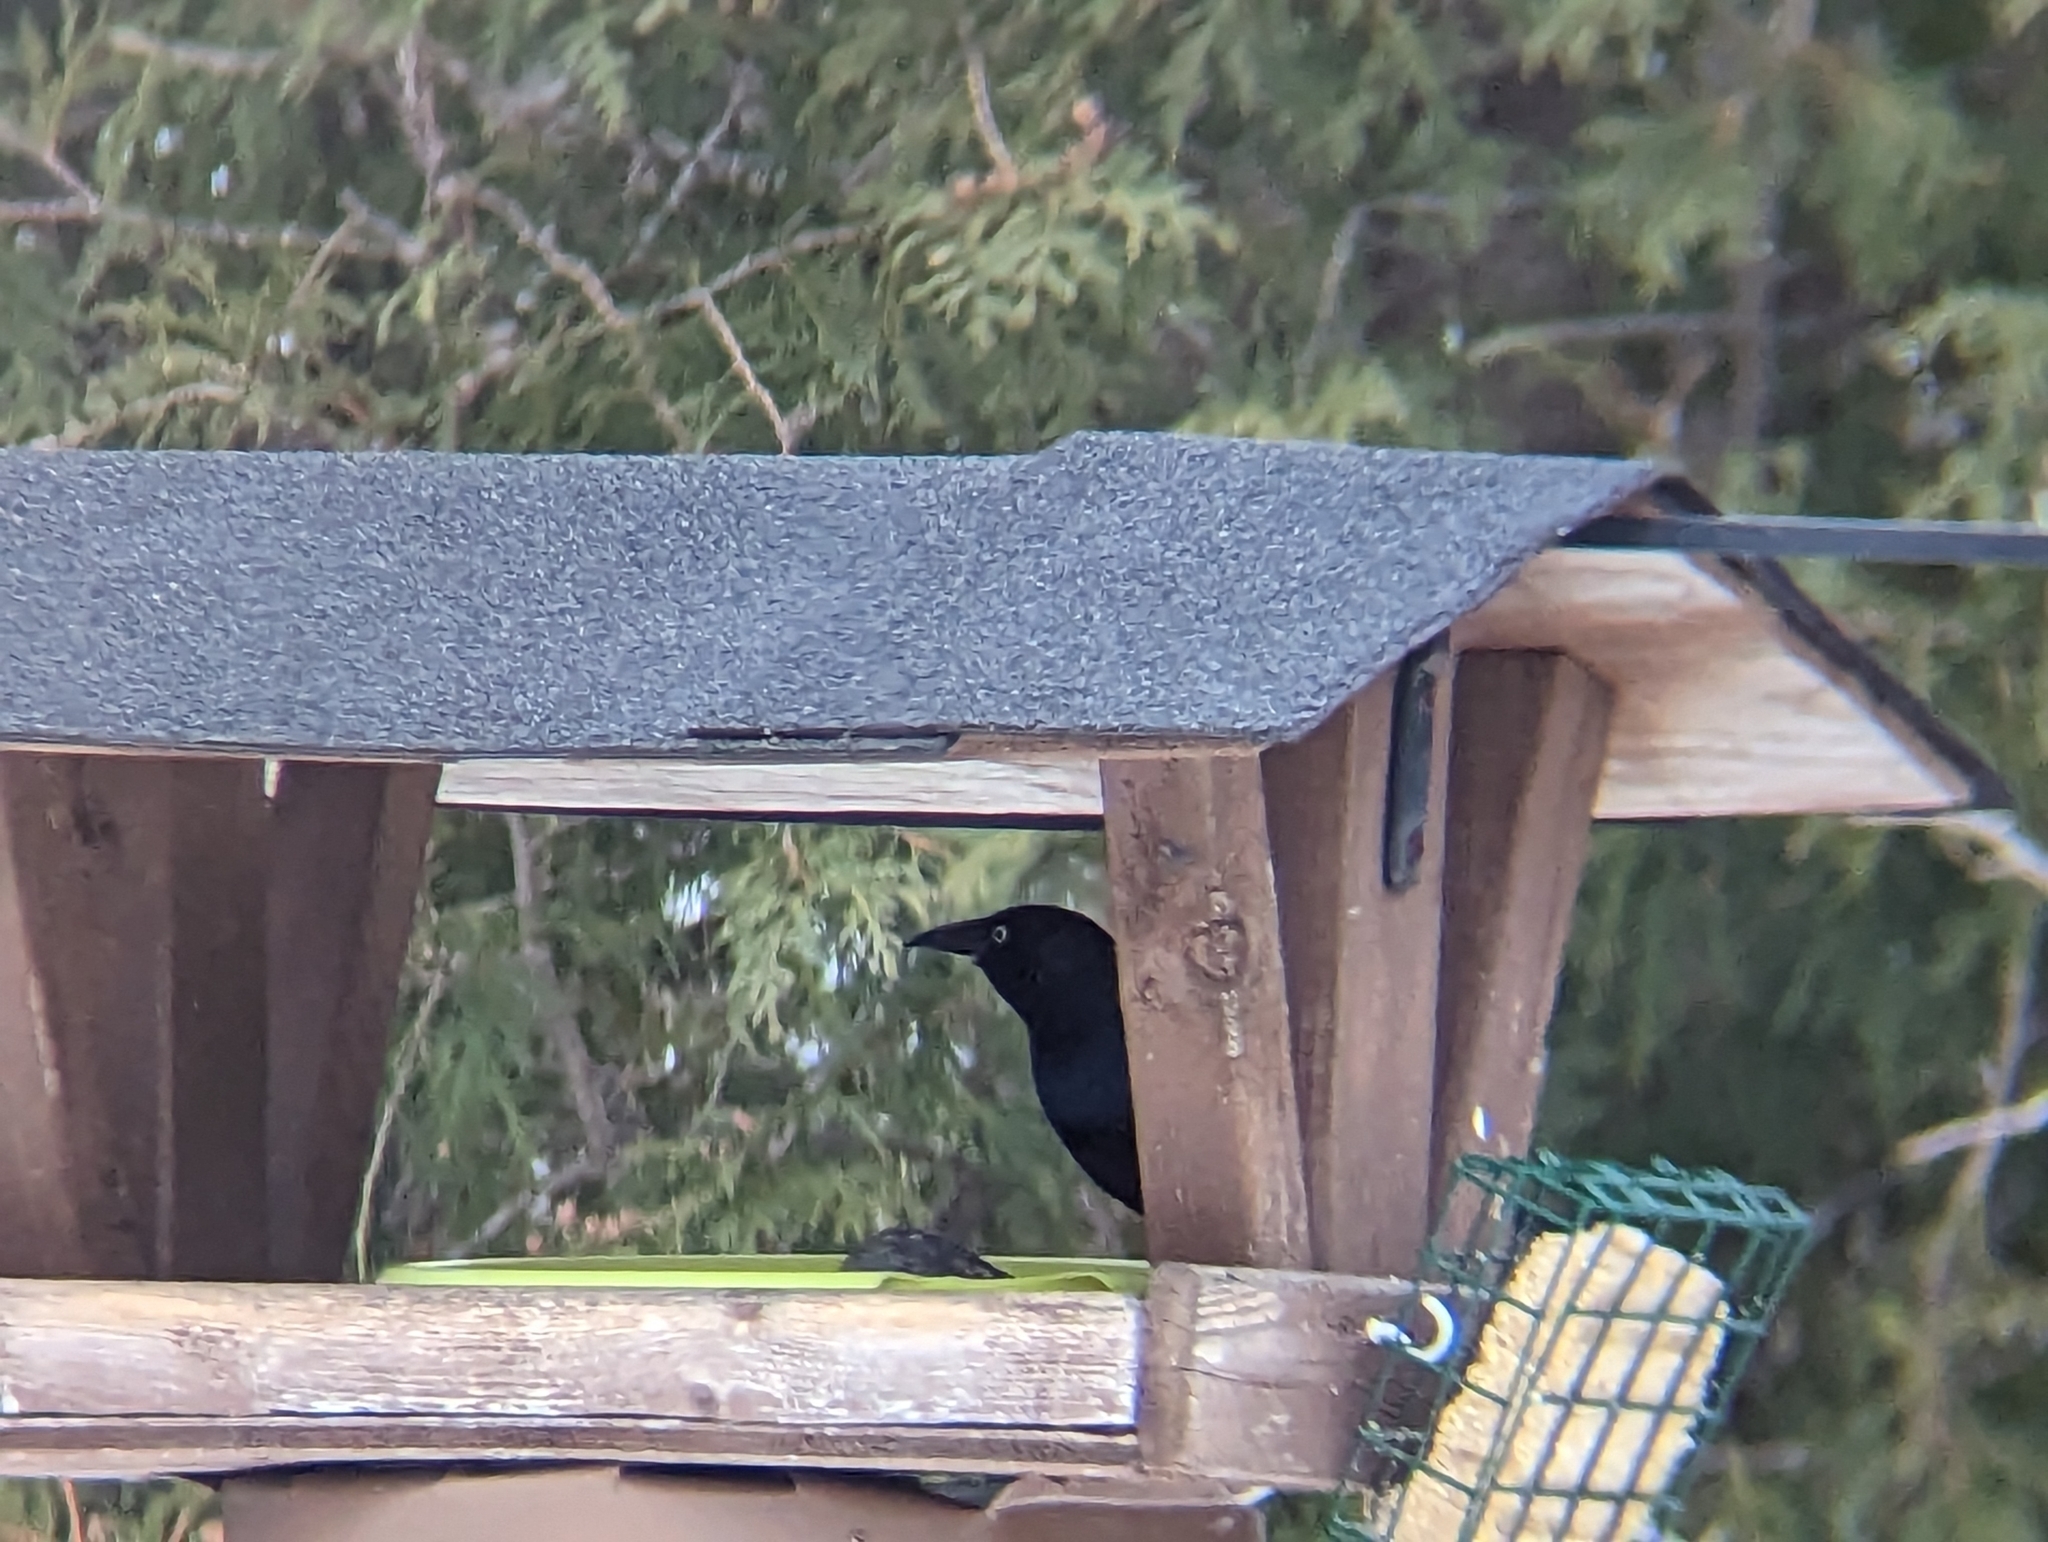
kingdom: Animalia
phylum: Chordata
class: Aves
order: Passeriformes
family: Icteridae
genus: Quiscalus
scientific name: Quiscalus quiscula
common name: Common grackle
